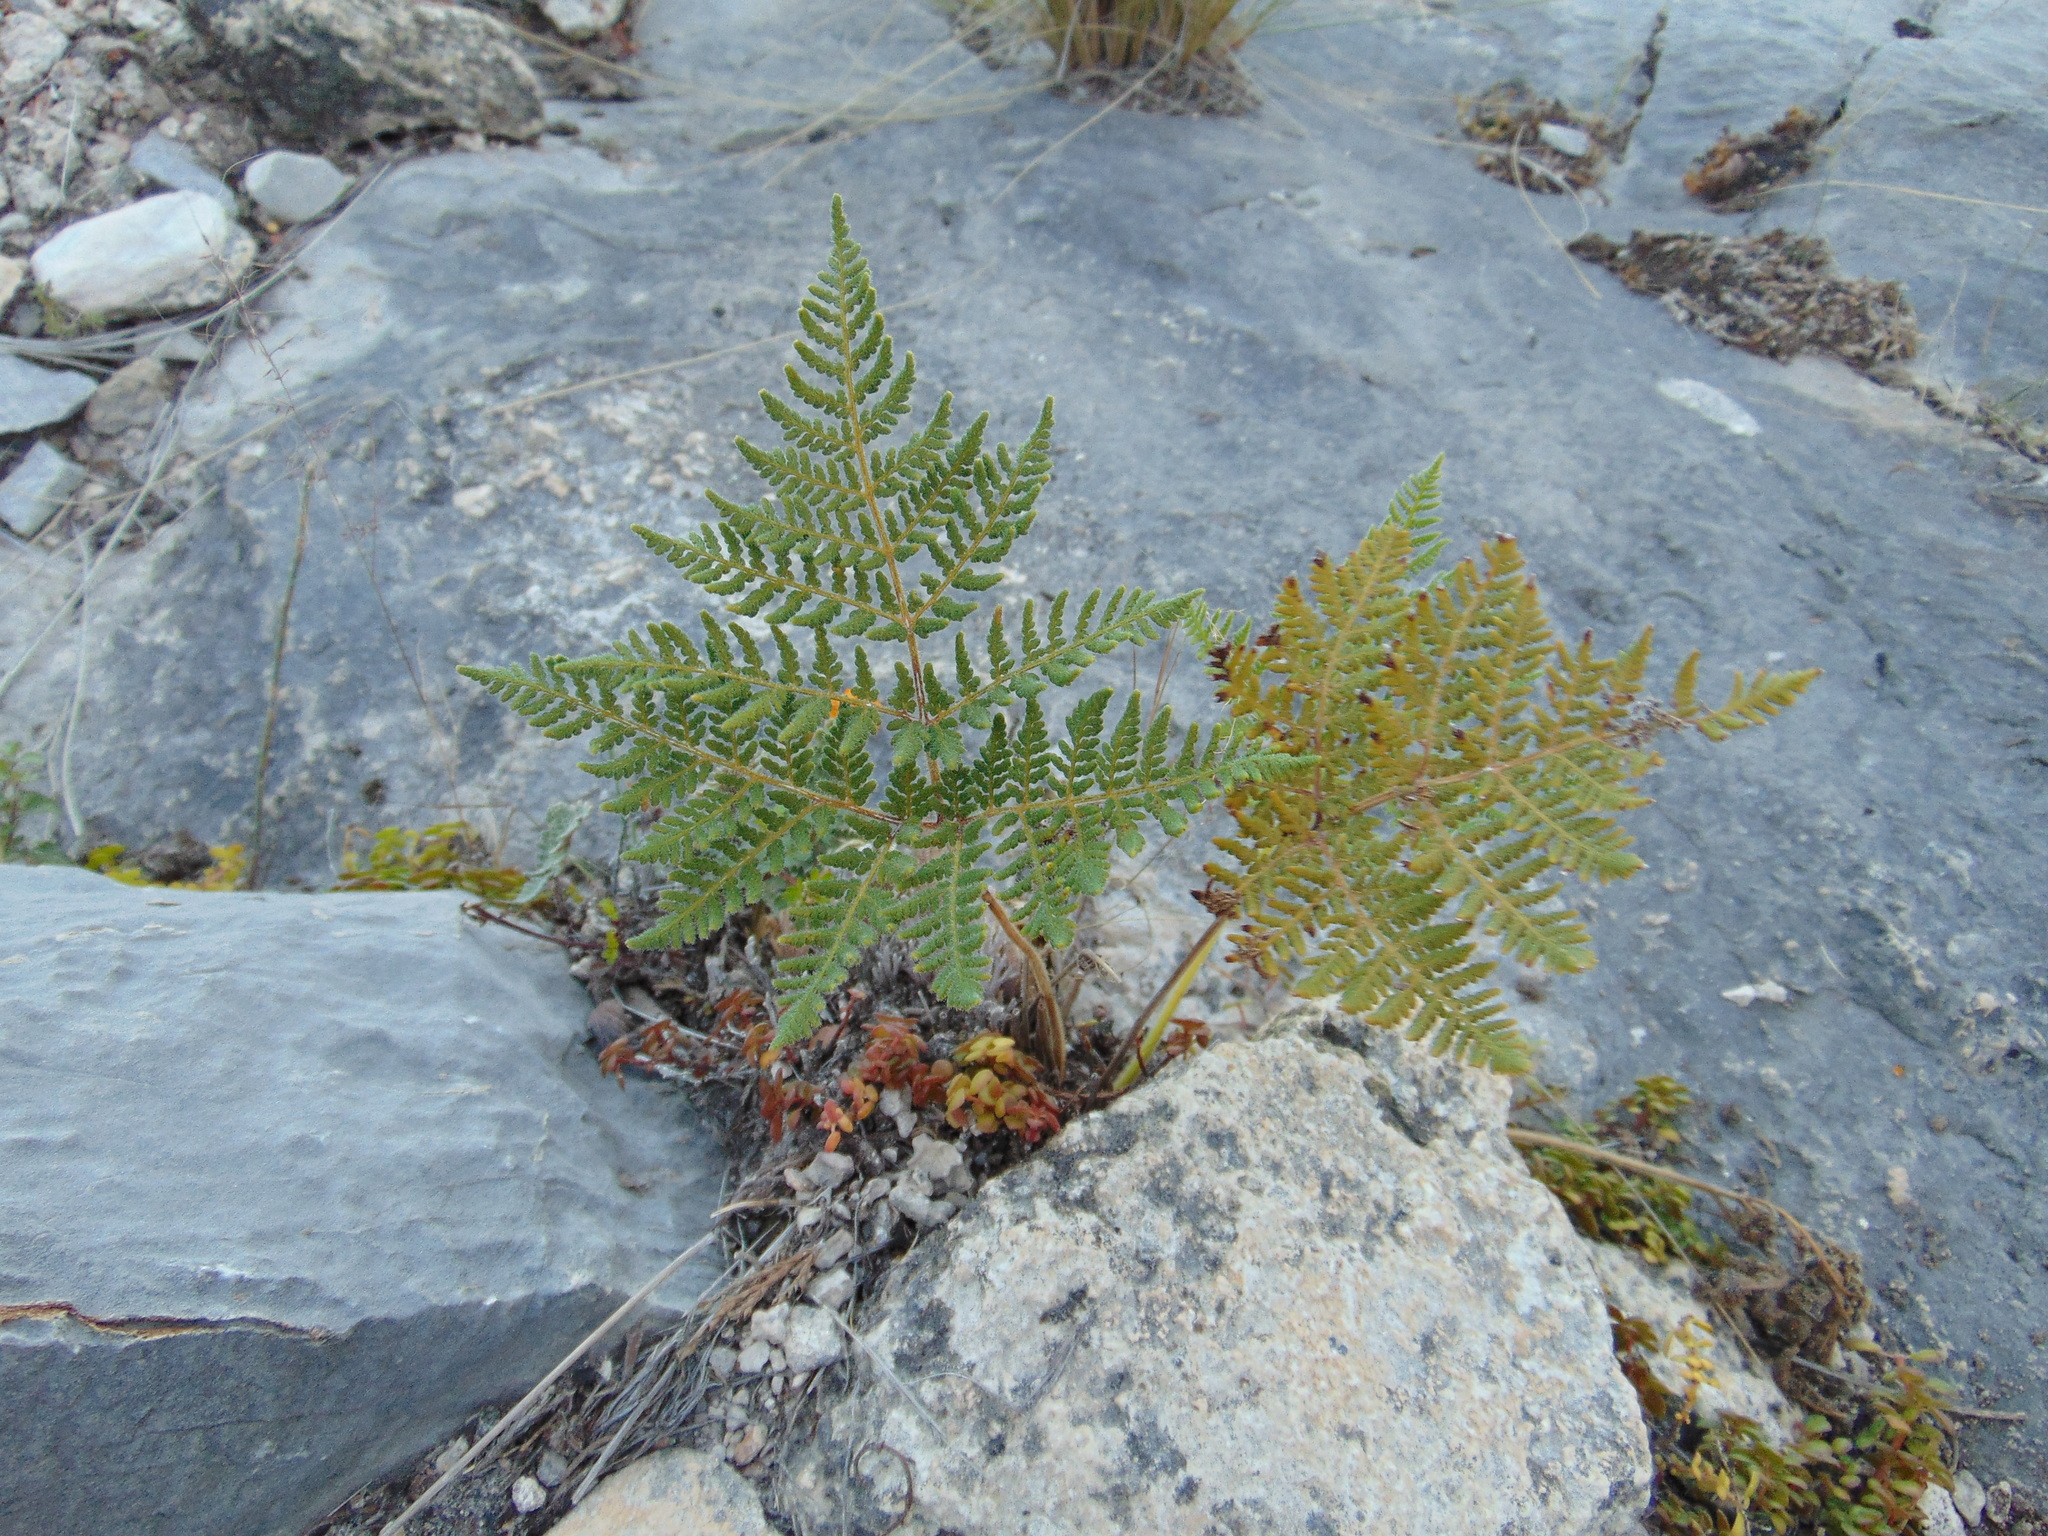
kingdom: Plantae
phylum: Tracheophyta
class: Polypodiopsida
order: Polypodiales
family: Pteridaceae
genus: Cheilanthes
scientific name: Cheilanthes leucopoda
